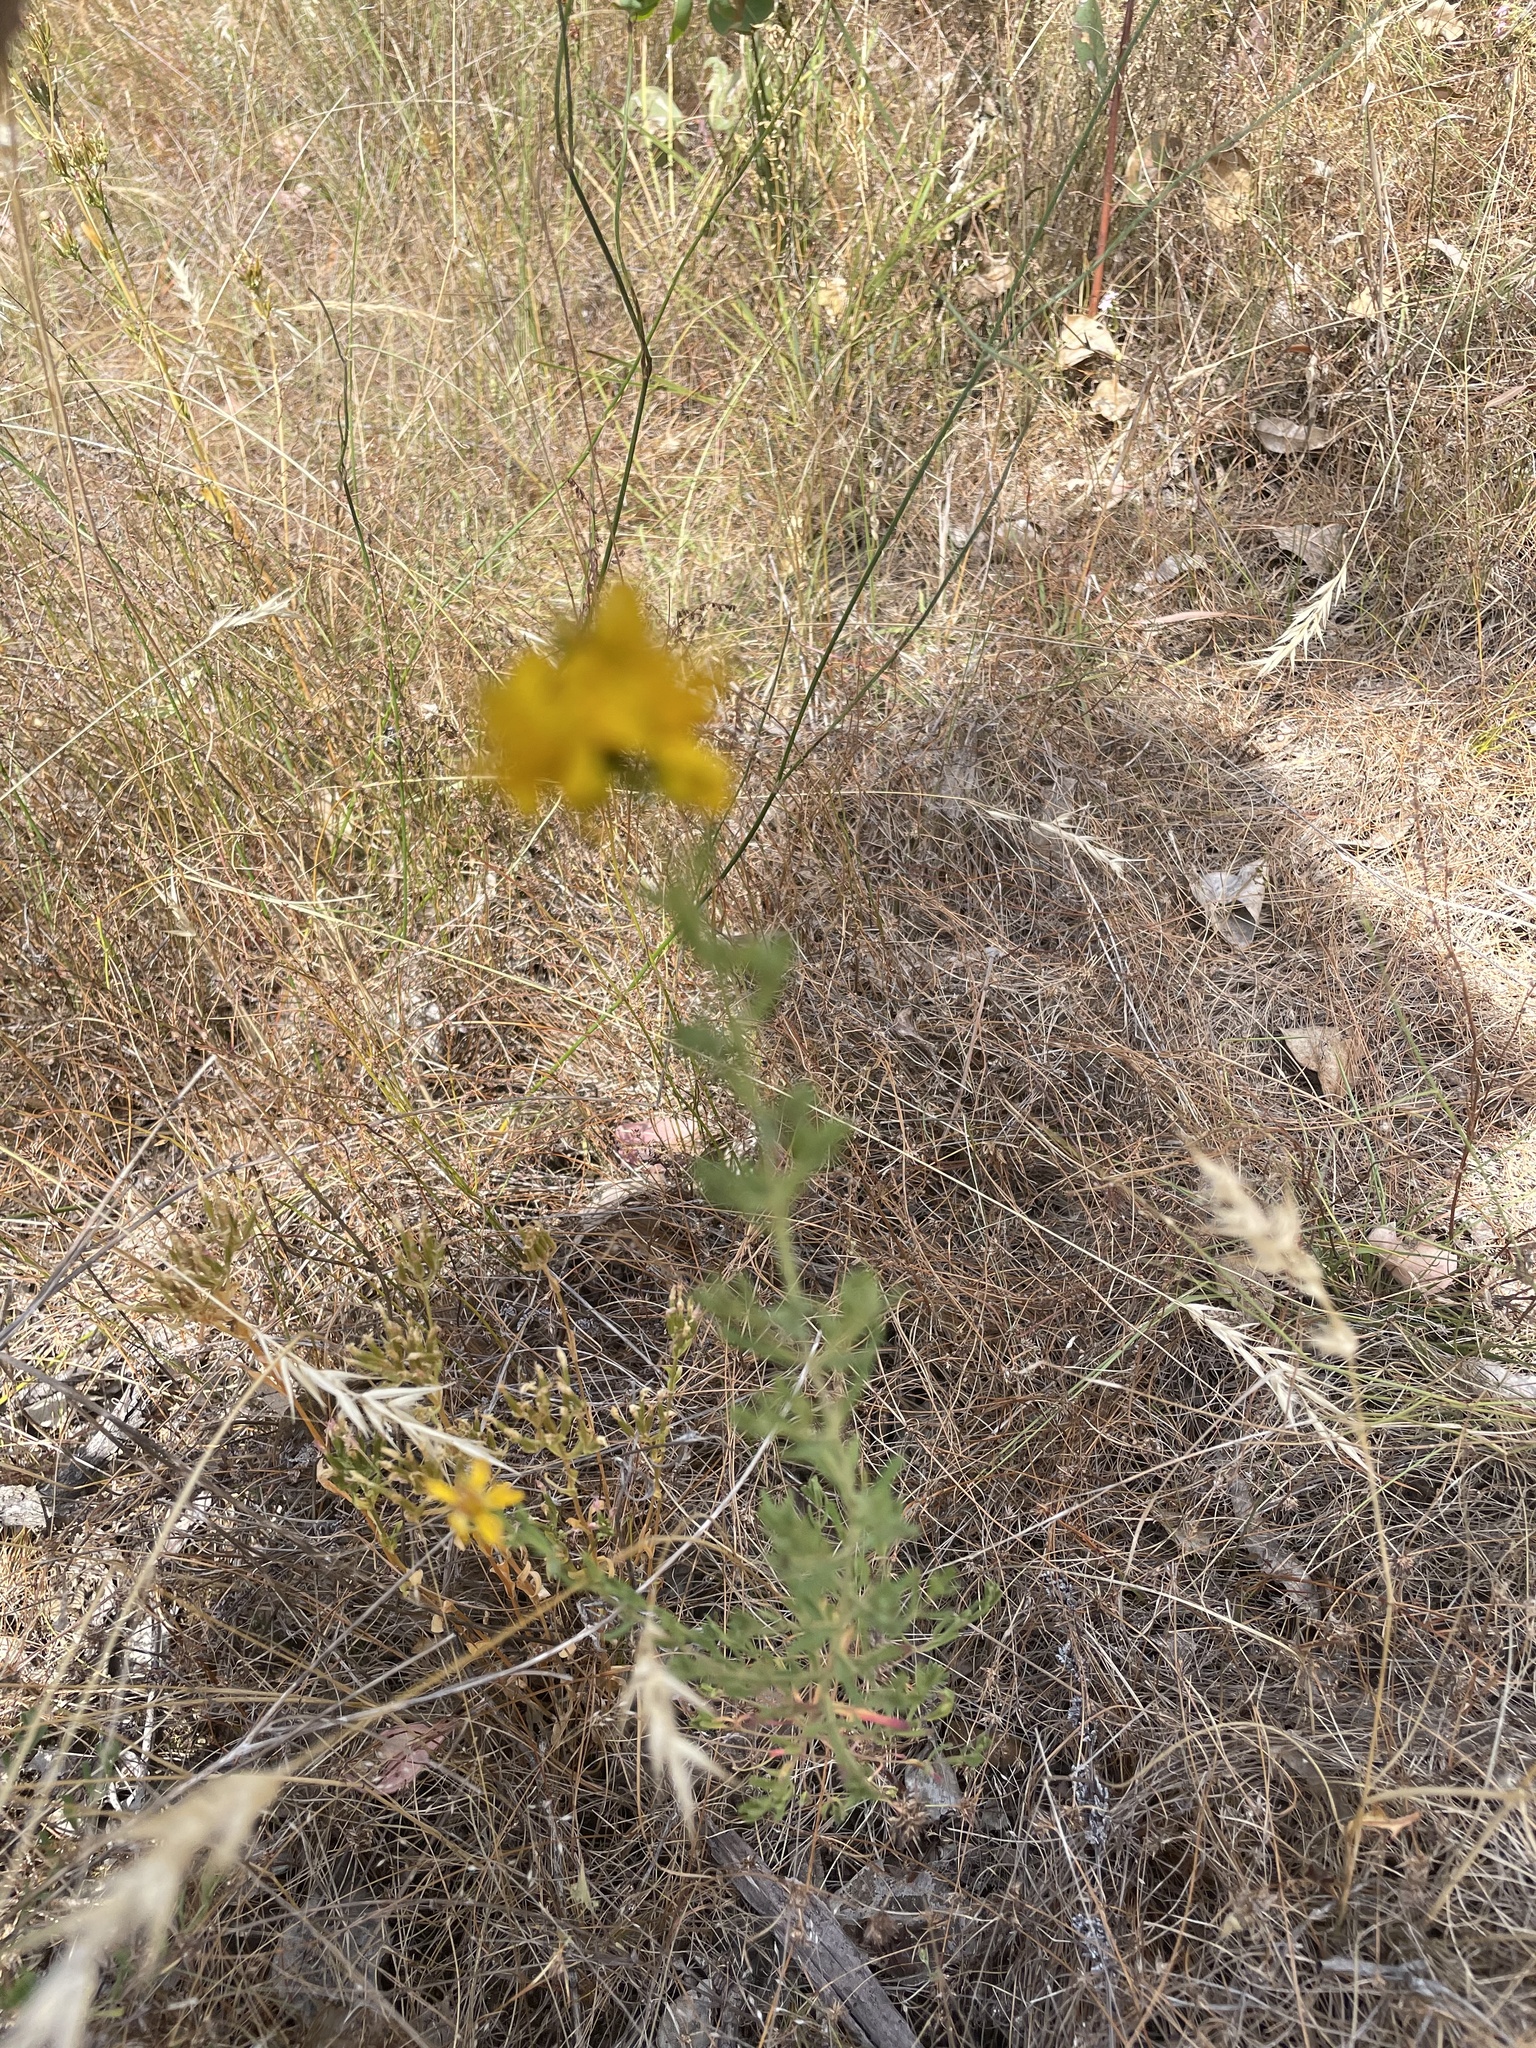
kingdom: Plantae
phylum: Tracheophyta
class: Magnoliopsida
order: Malpighiales
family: Hypericaceae
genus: Hypericum
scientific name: Hypericum perforatum
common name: Common st. johnswort
